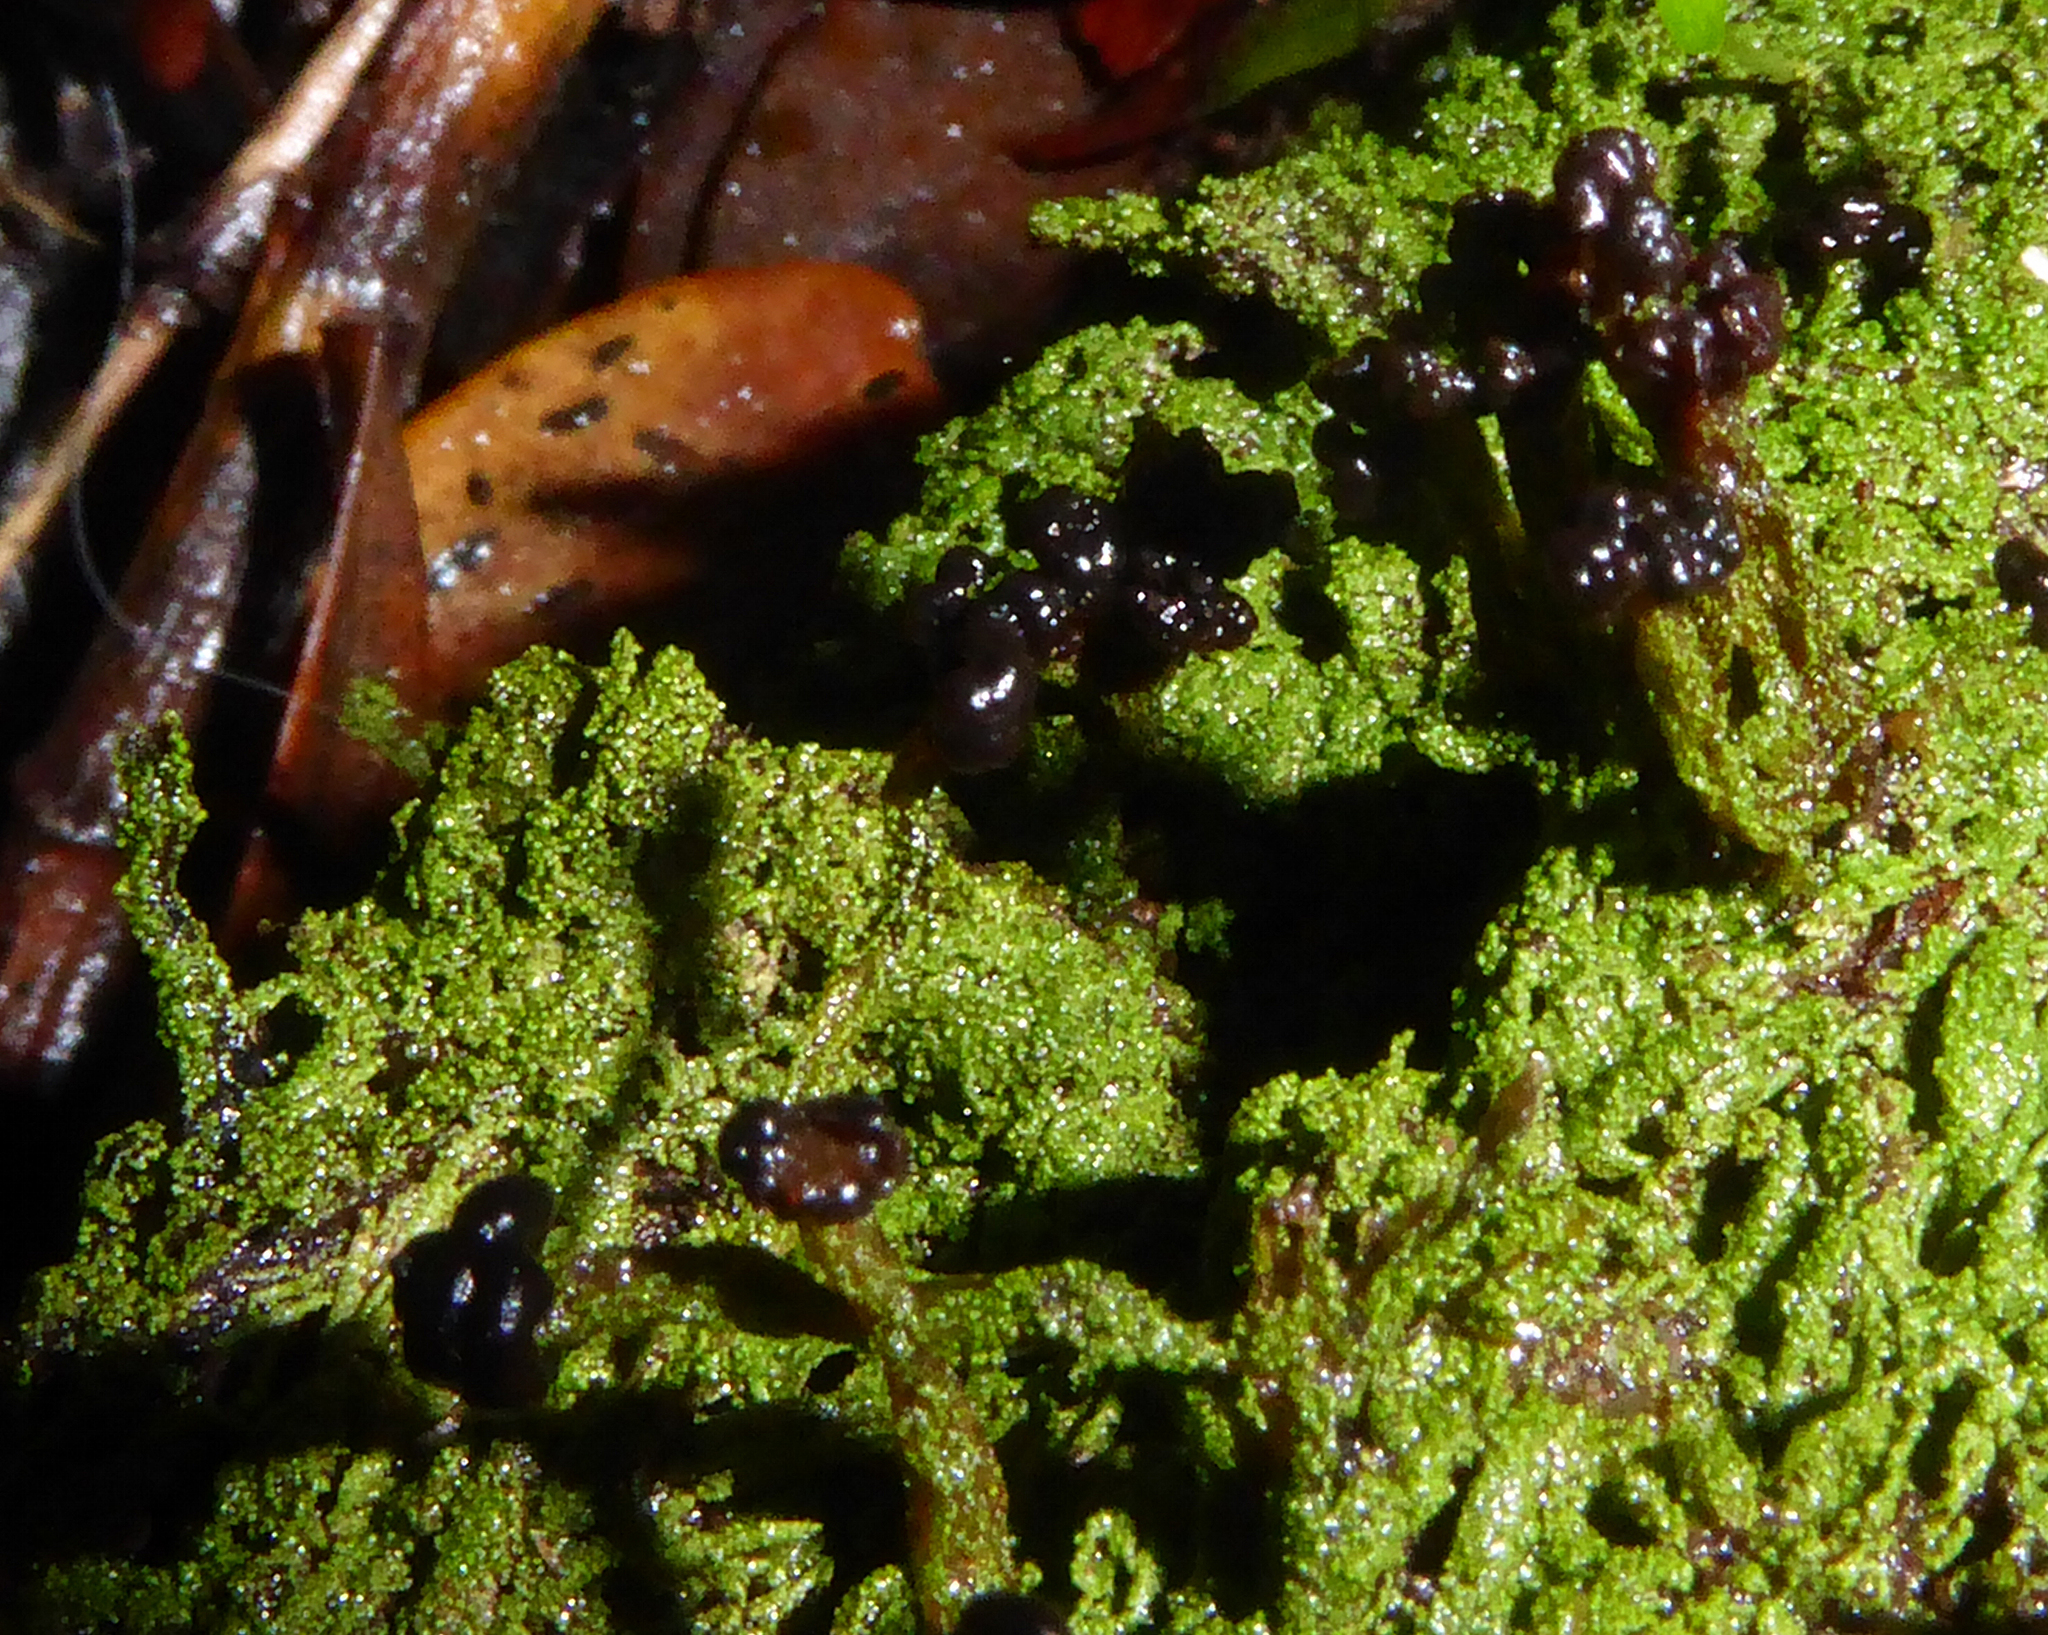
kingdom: Fungi
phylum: Ascomycota
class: Lecanoromycetes
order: Lecanorales
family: Cladoniaceae
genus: Metus
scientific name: Metus conglomeratus
